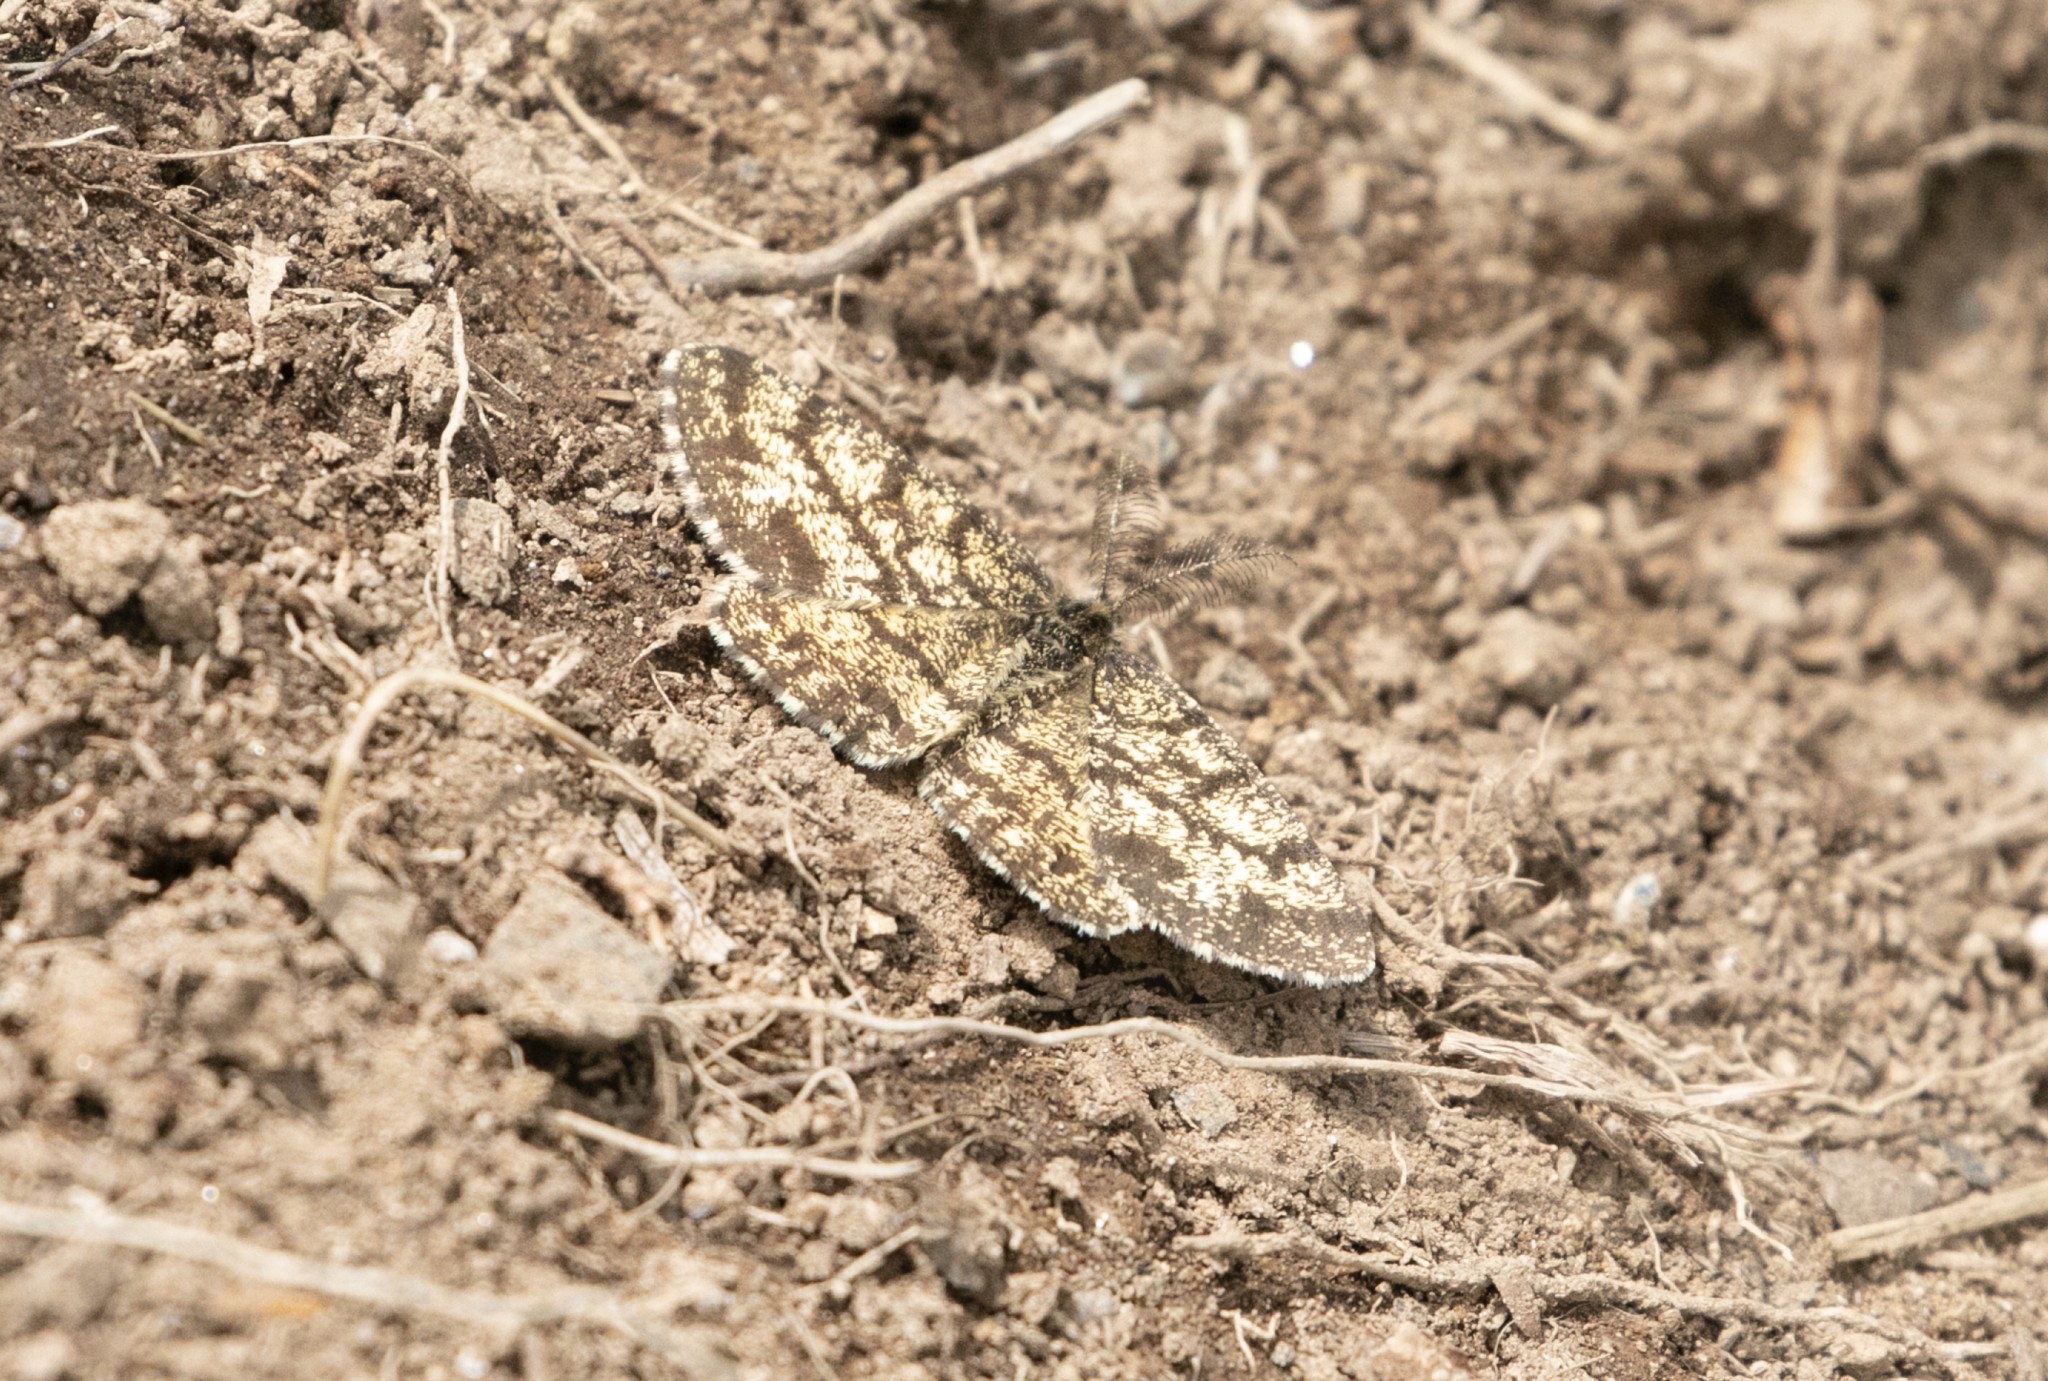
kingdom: Animalia
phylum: Arthropoda
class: Insecta
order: Lepidoptera
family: Geometridae
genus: Ematurga
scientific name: Ematurga atomaria
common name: Common heath
